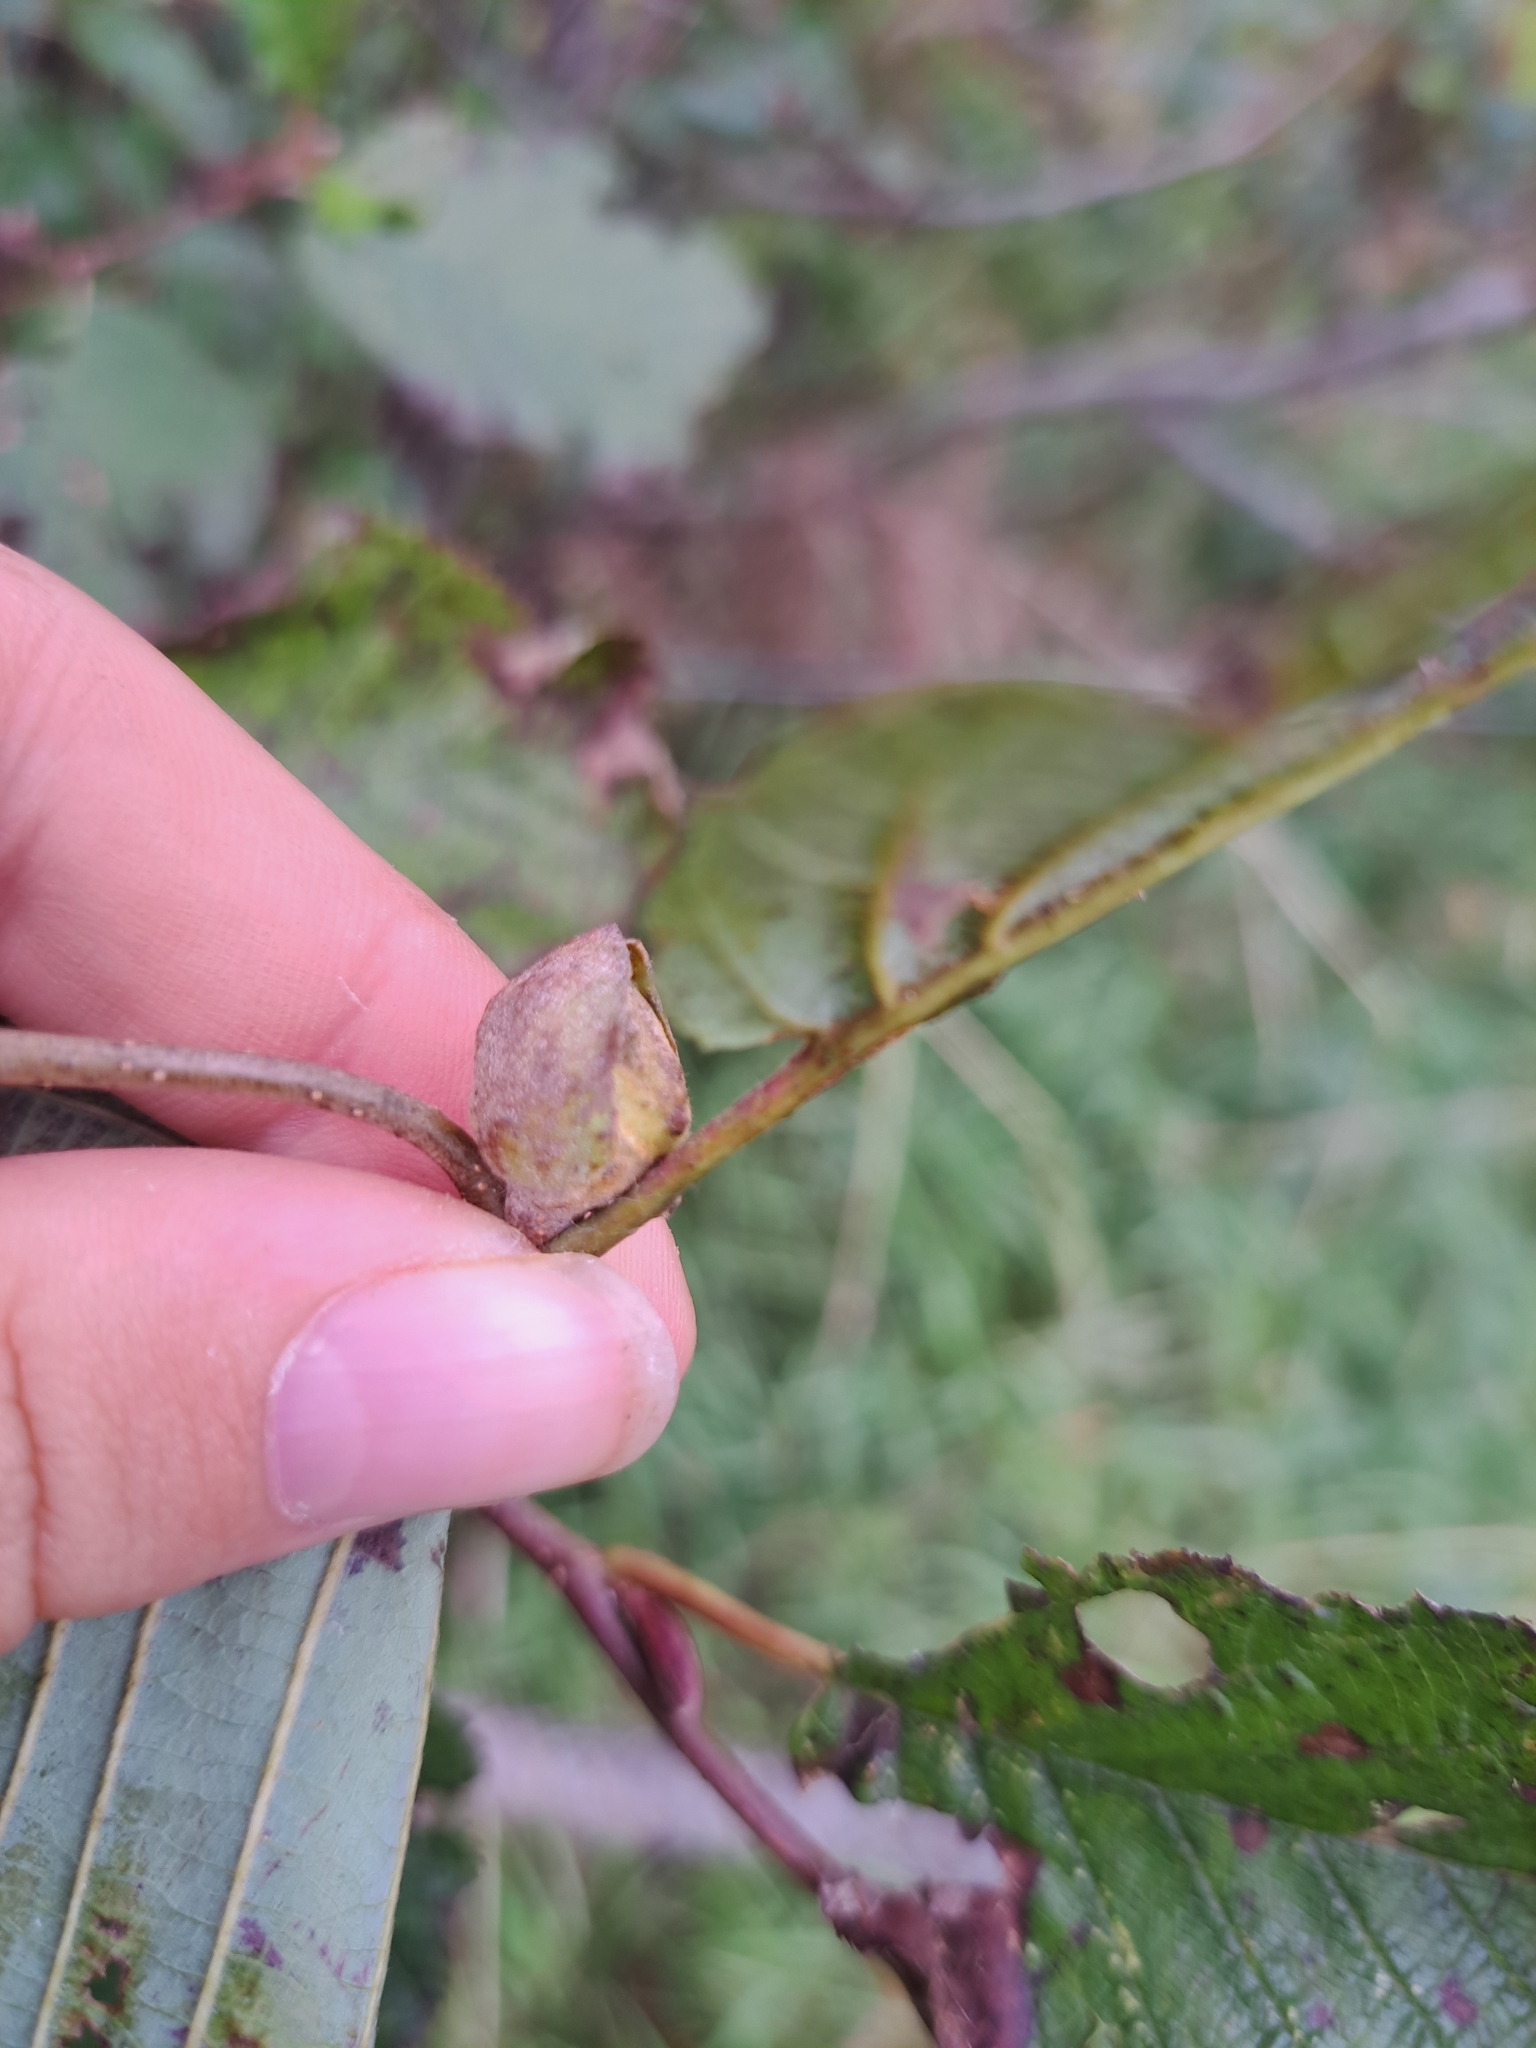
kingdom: Animalia
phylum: Arthropoda
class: Insecta
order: Diptera
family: Cecidomyiidae
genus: Dasineura
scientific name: Dasineura serrulatae
